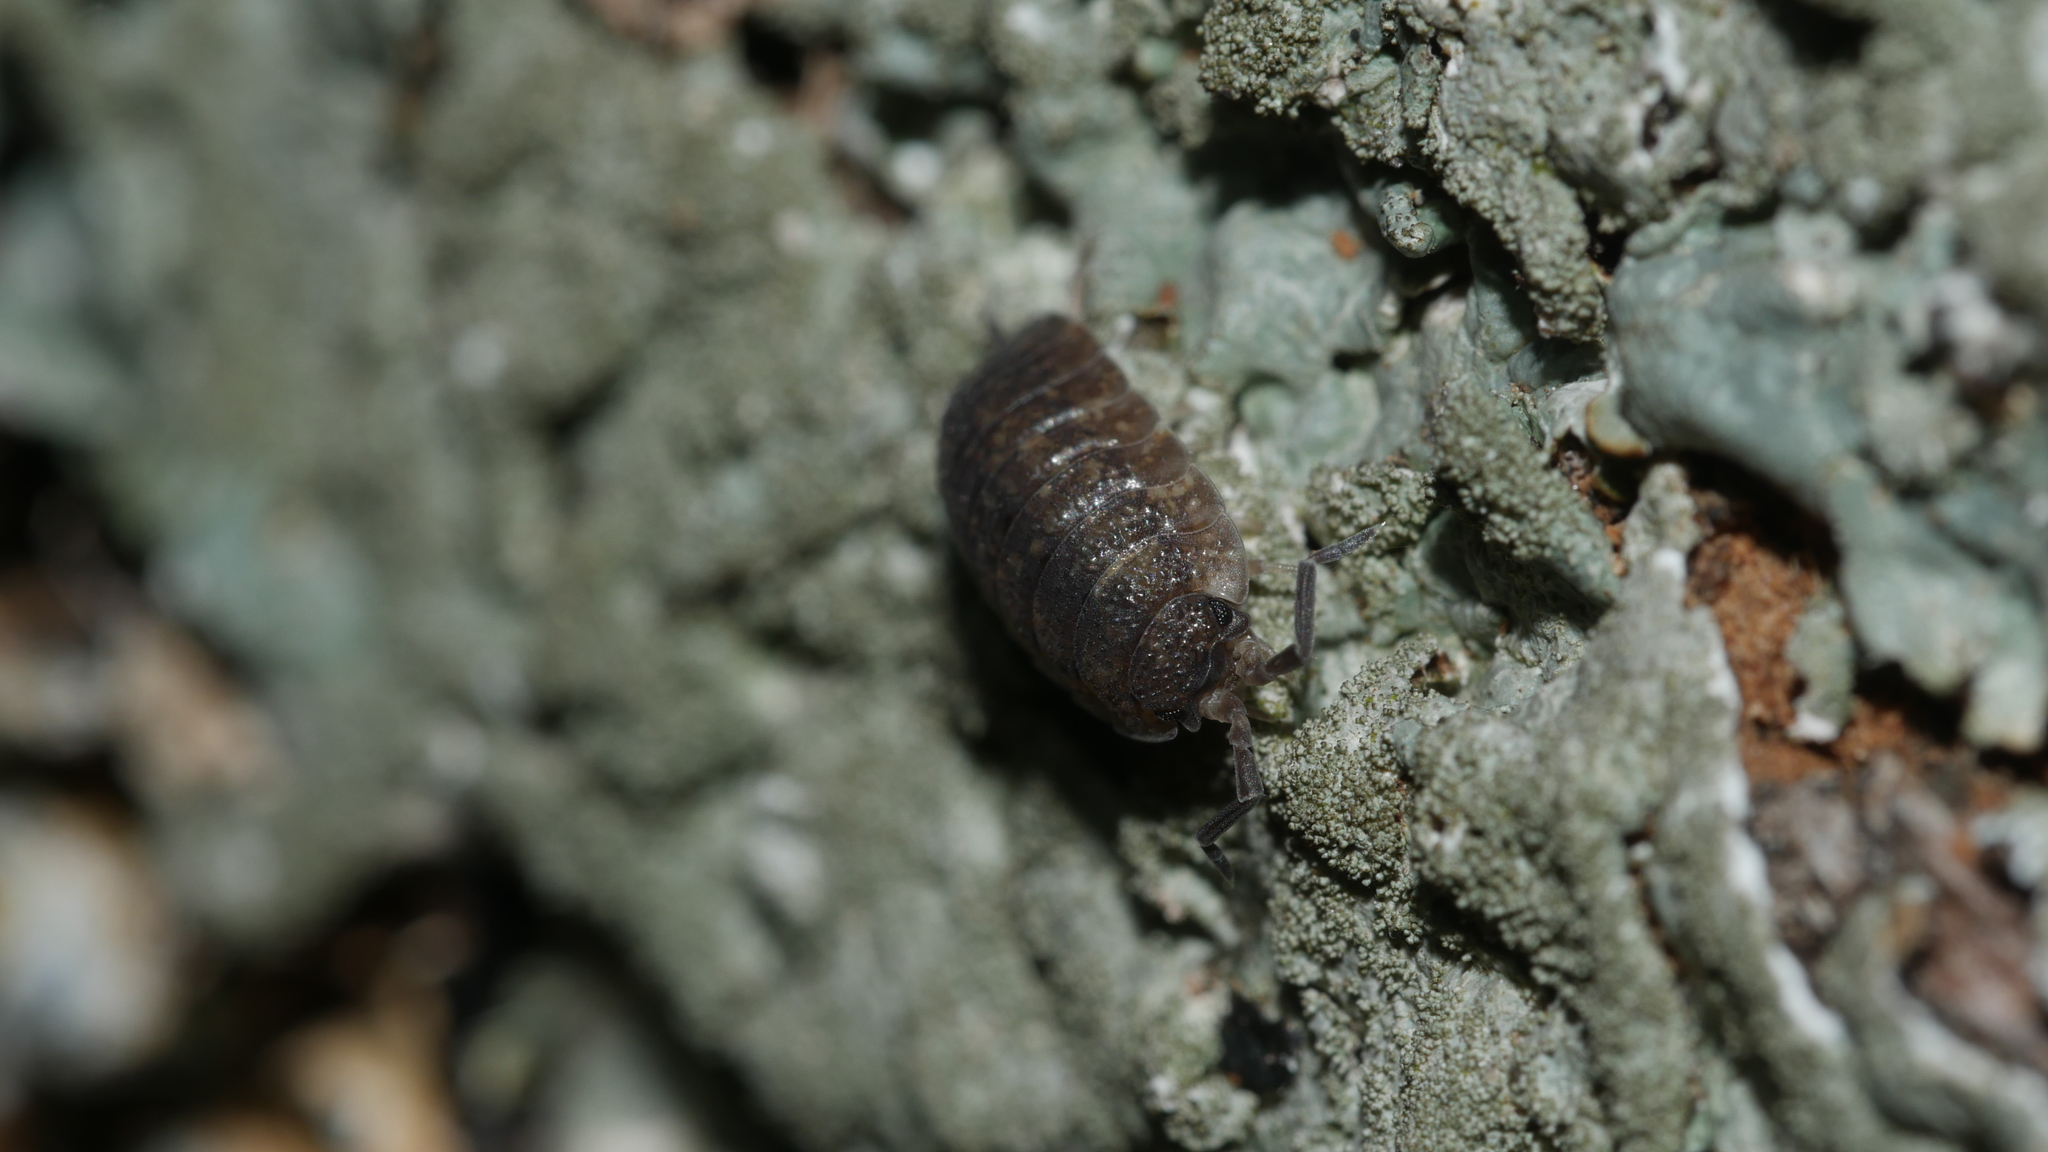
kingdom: Animalia
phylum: Arthropoda
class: Malacostraca
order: Isopoda
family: Porcellionidae
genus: Porcellio
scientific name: Porcellio scaber
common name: Common rough woodlouse
